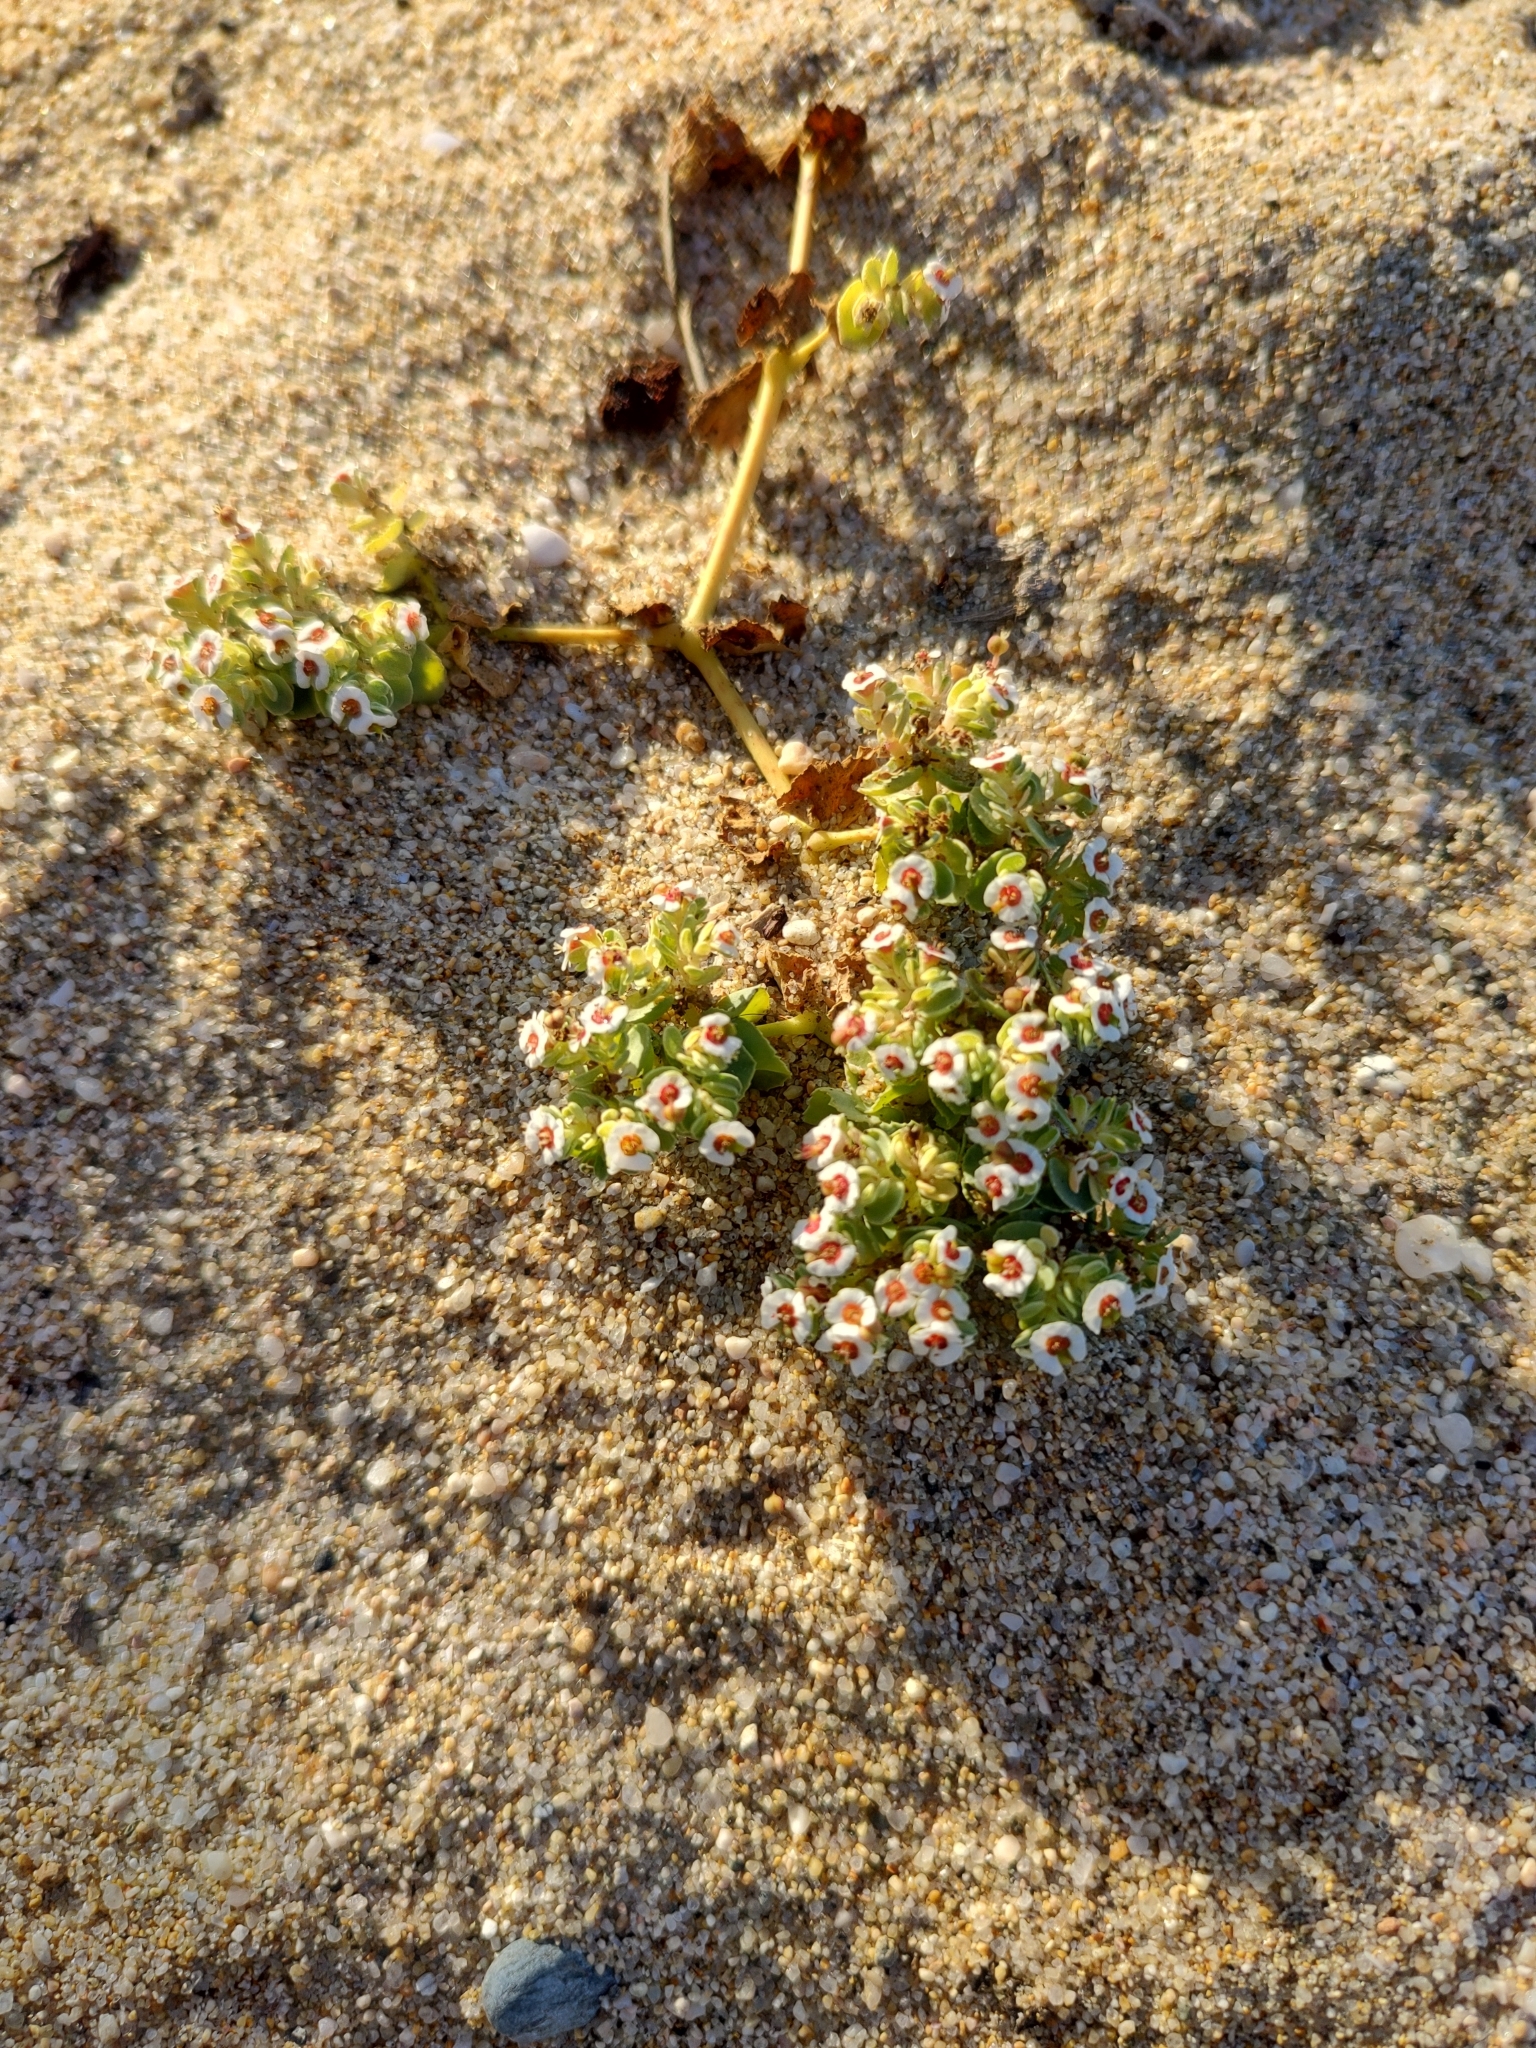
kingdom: Plantae
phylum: Tracheophyta
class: Magnoliopsida
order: Malpighiales
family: Euphorbiaceae
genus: Euphorbia
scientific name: Euphorbia leucophylla
